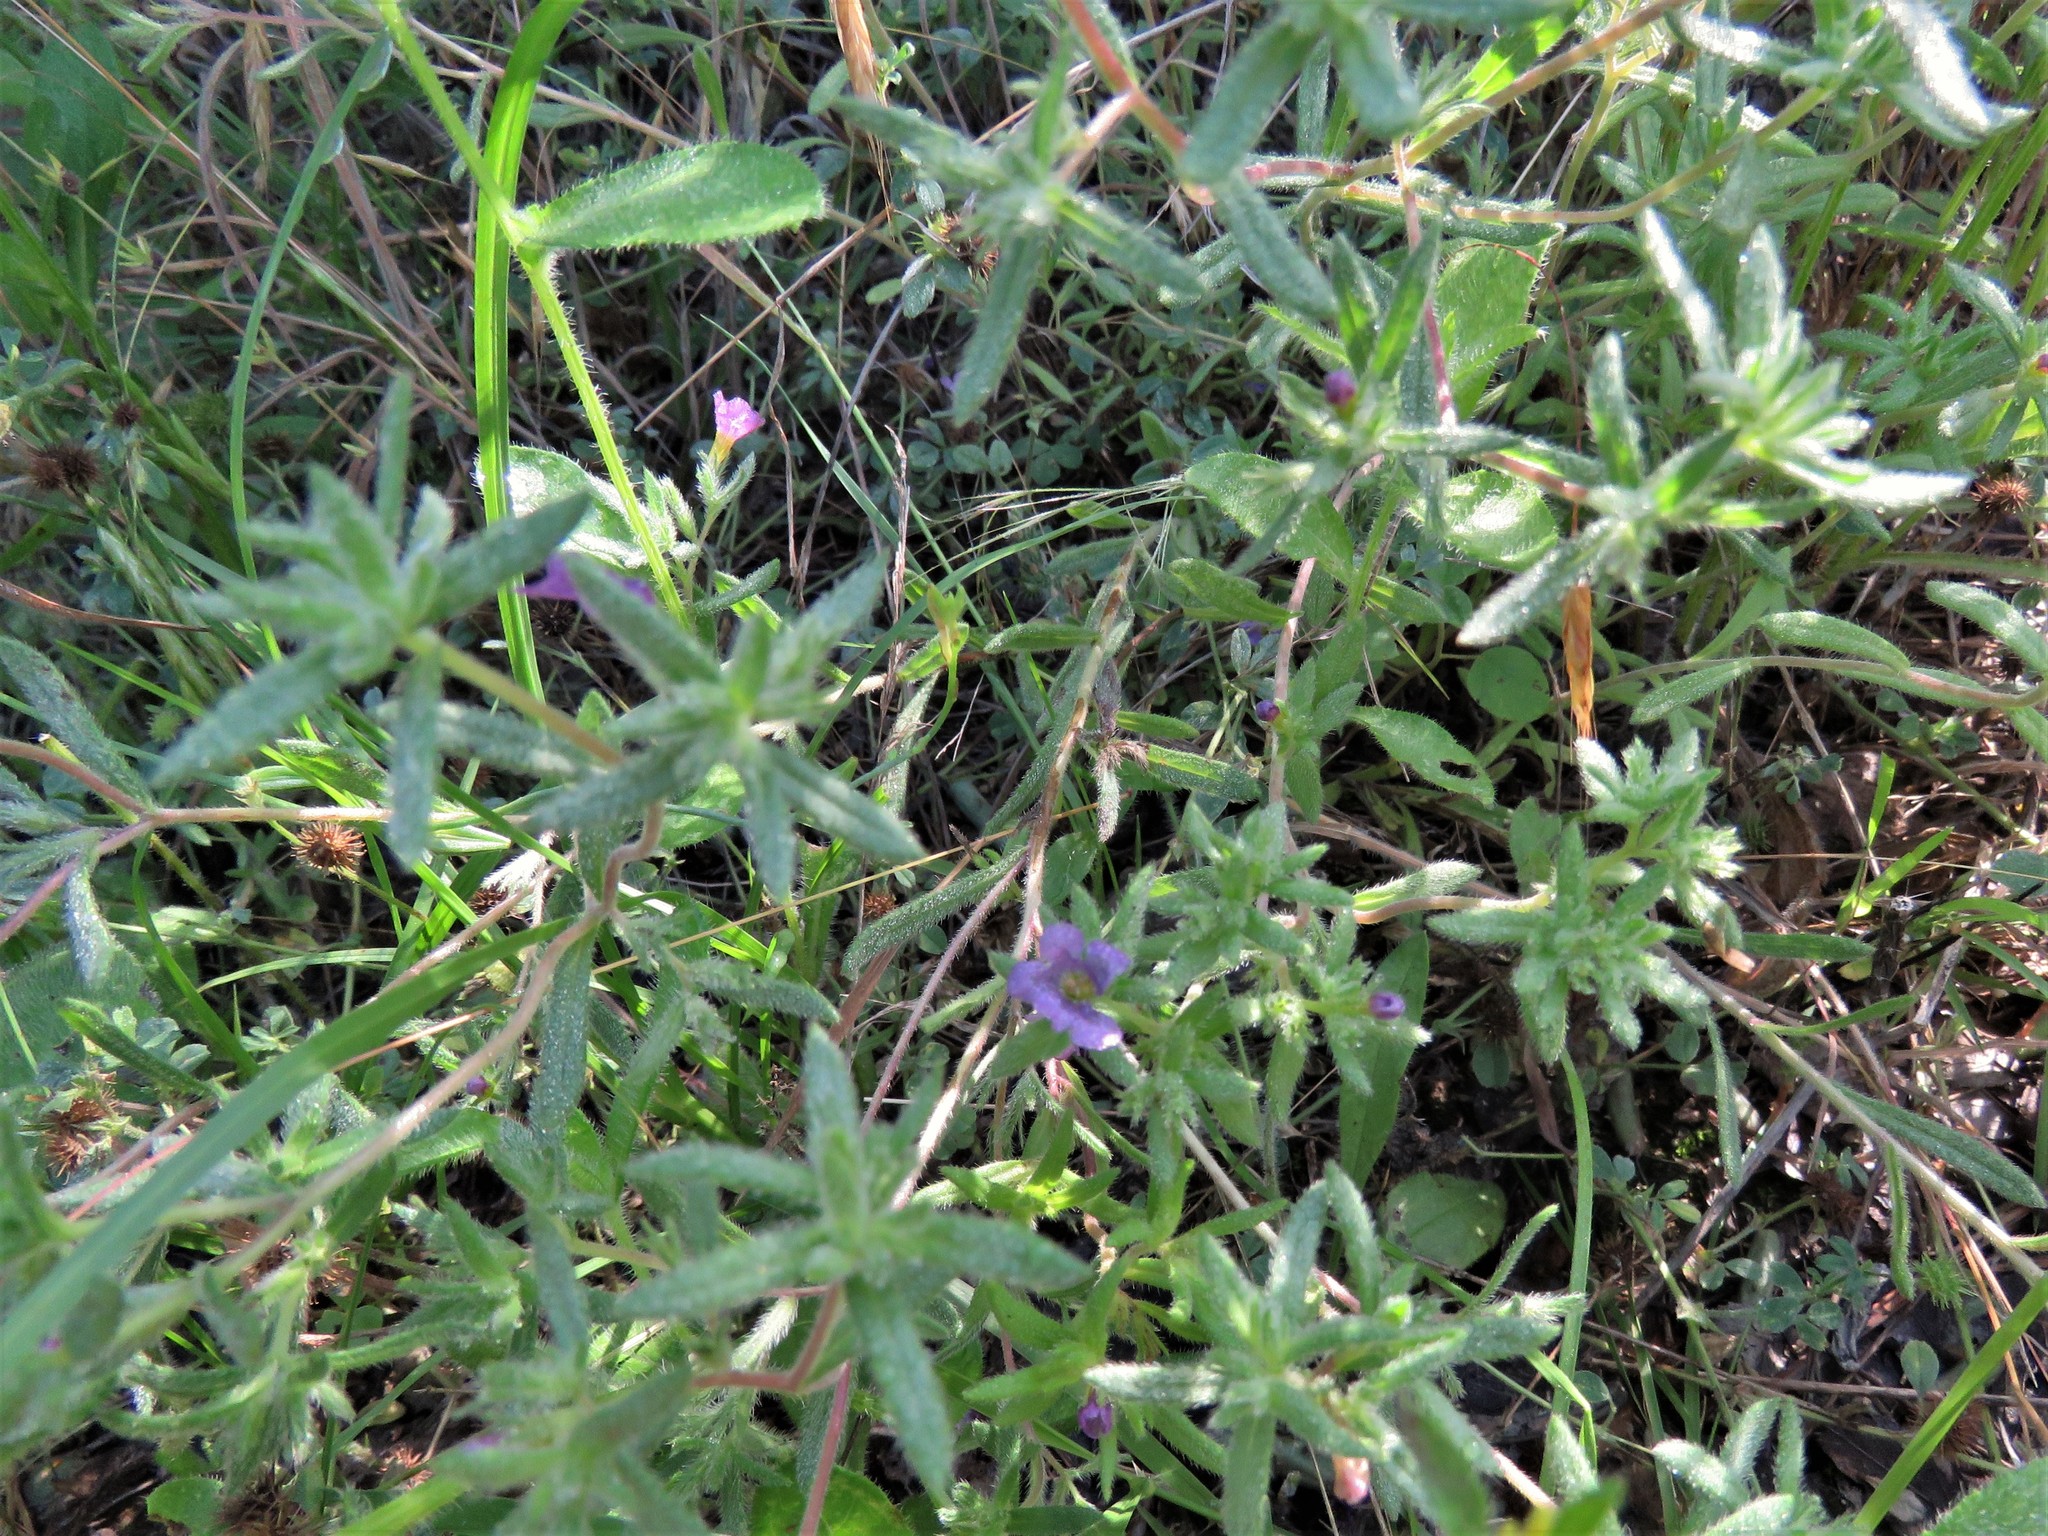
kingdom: Plantae
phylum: Tracheophyta
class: Magnoliopsida
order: Boraginales
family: Namaceae
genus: Nama
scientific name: Nama hispida
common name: Bristly nama
